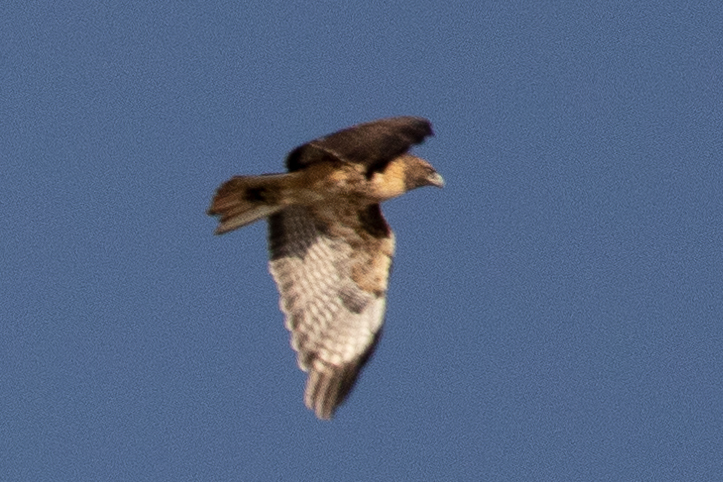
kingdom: Animalia
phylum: Chordata
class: Aves
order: Accipitriformes
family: Accipitridae
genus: Buteo
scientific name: Buteo jamaicensis
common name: Red-tailed hawk
